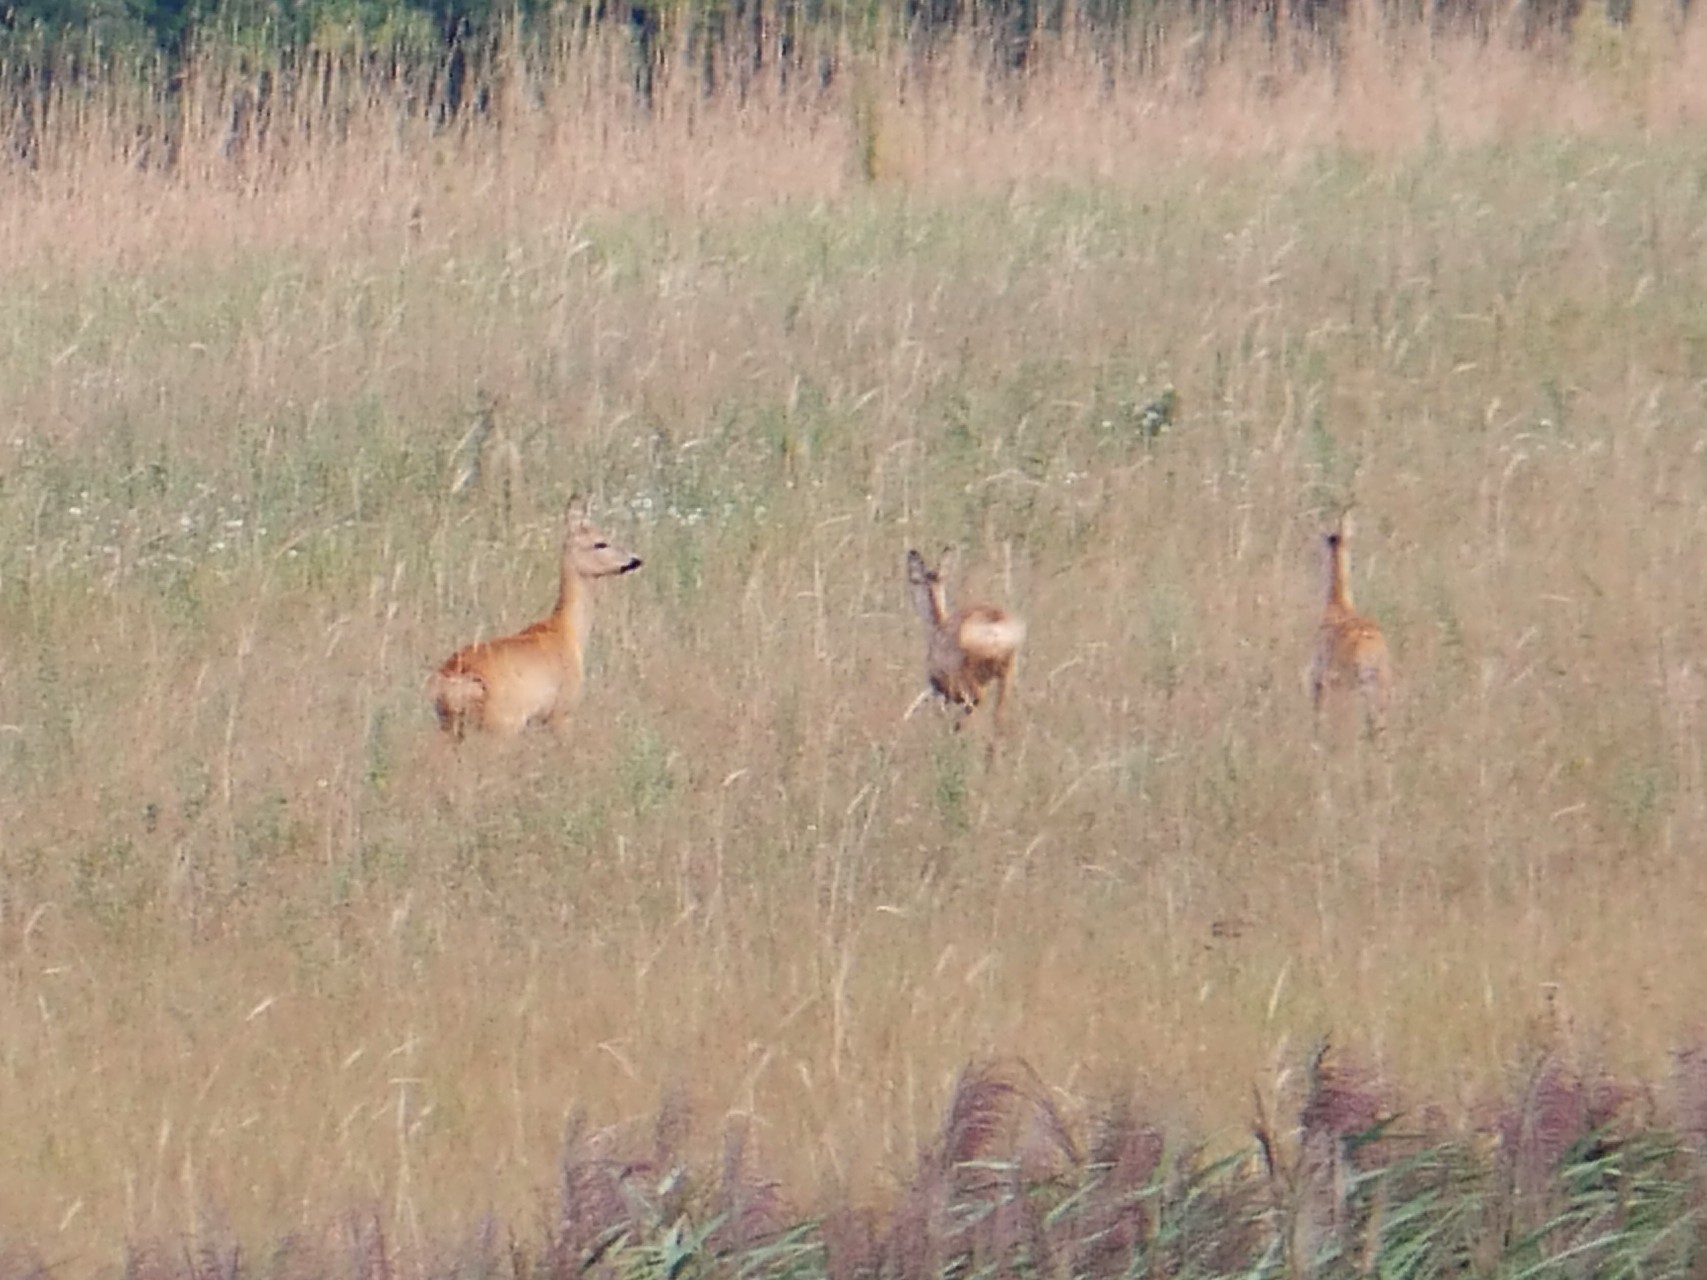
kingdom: Animalia
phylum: Chordata
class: Mammalia
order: Artiodactyla
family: Cervidae
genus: Capreolus
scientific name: Capreolus capreolus
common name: Western roe deer
